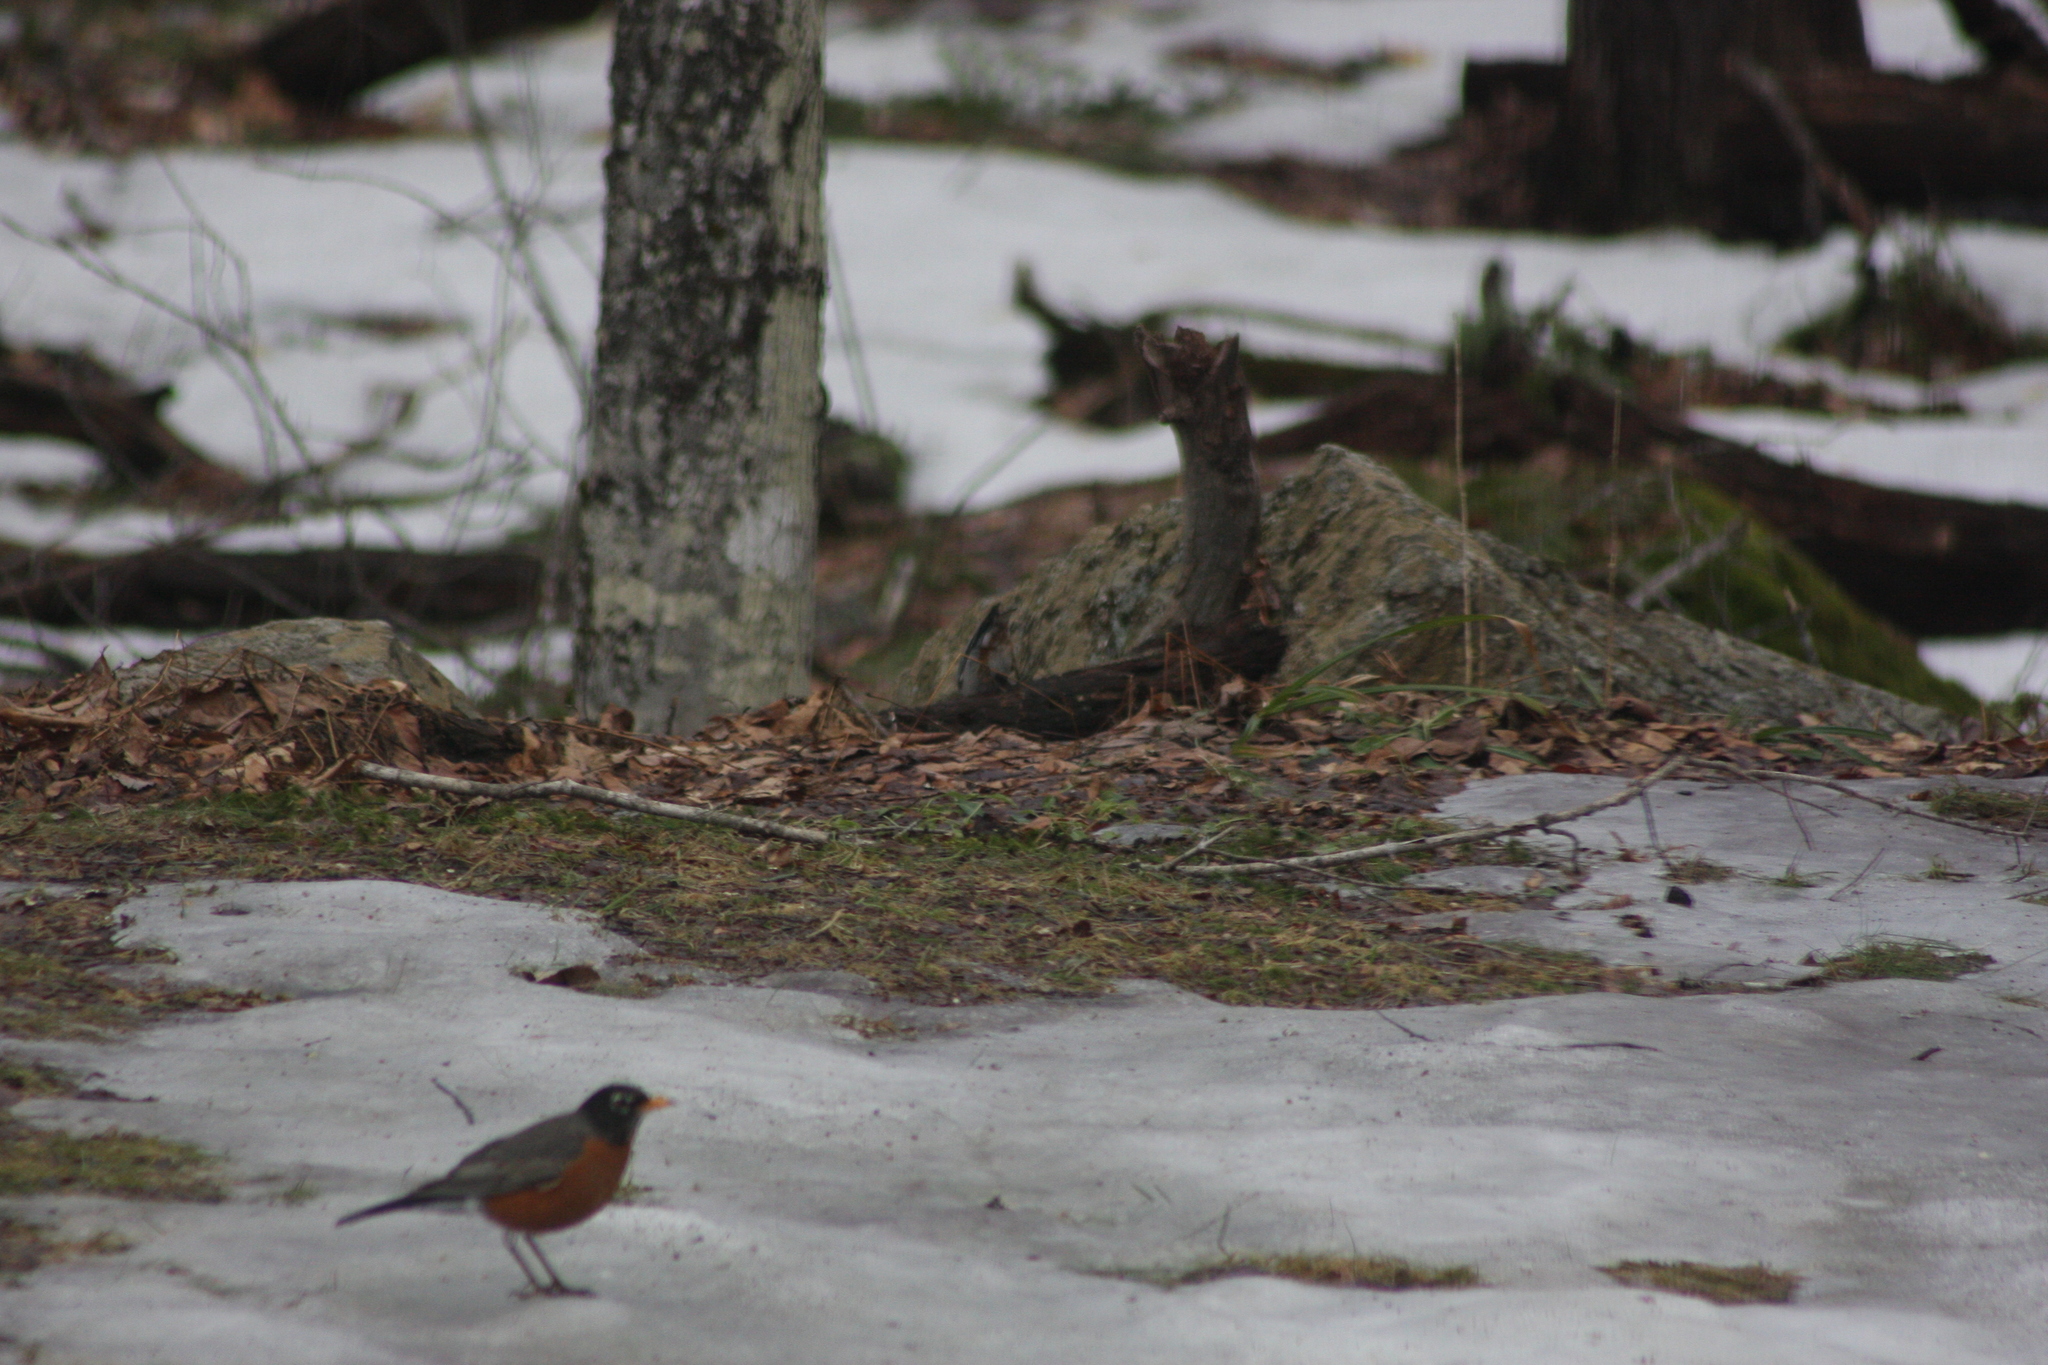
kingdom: Animalia
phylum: Chordata
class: Aves
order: Passeriformes
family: Turdidae
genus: Turdus
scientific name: Turdus migratorius
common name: American robin
